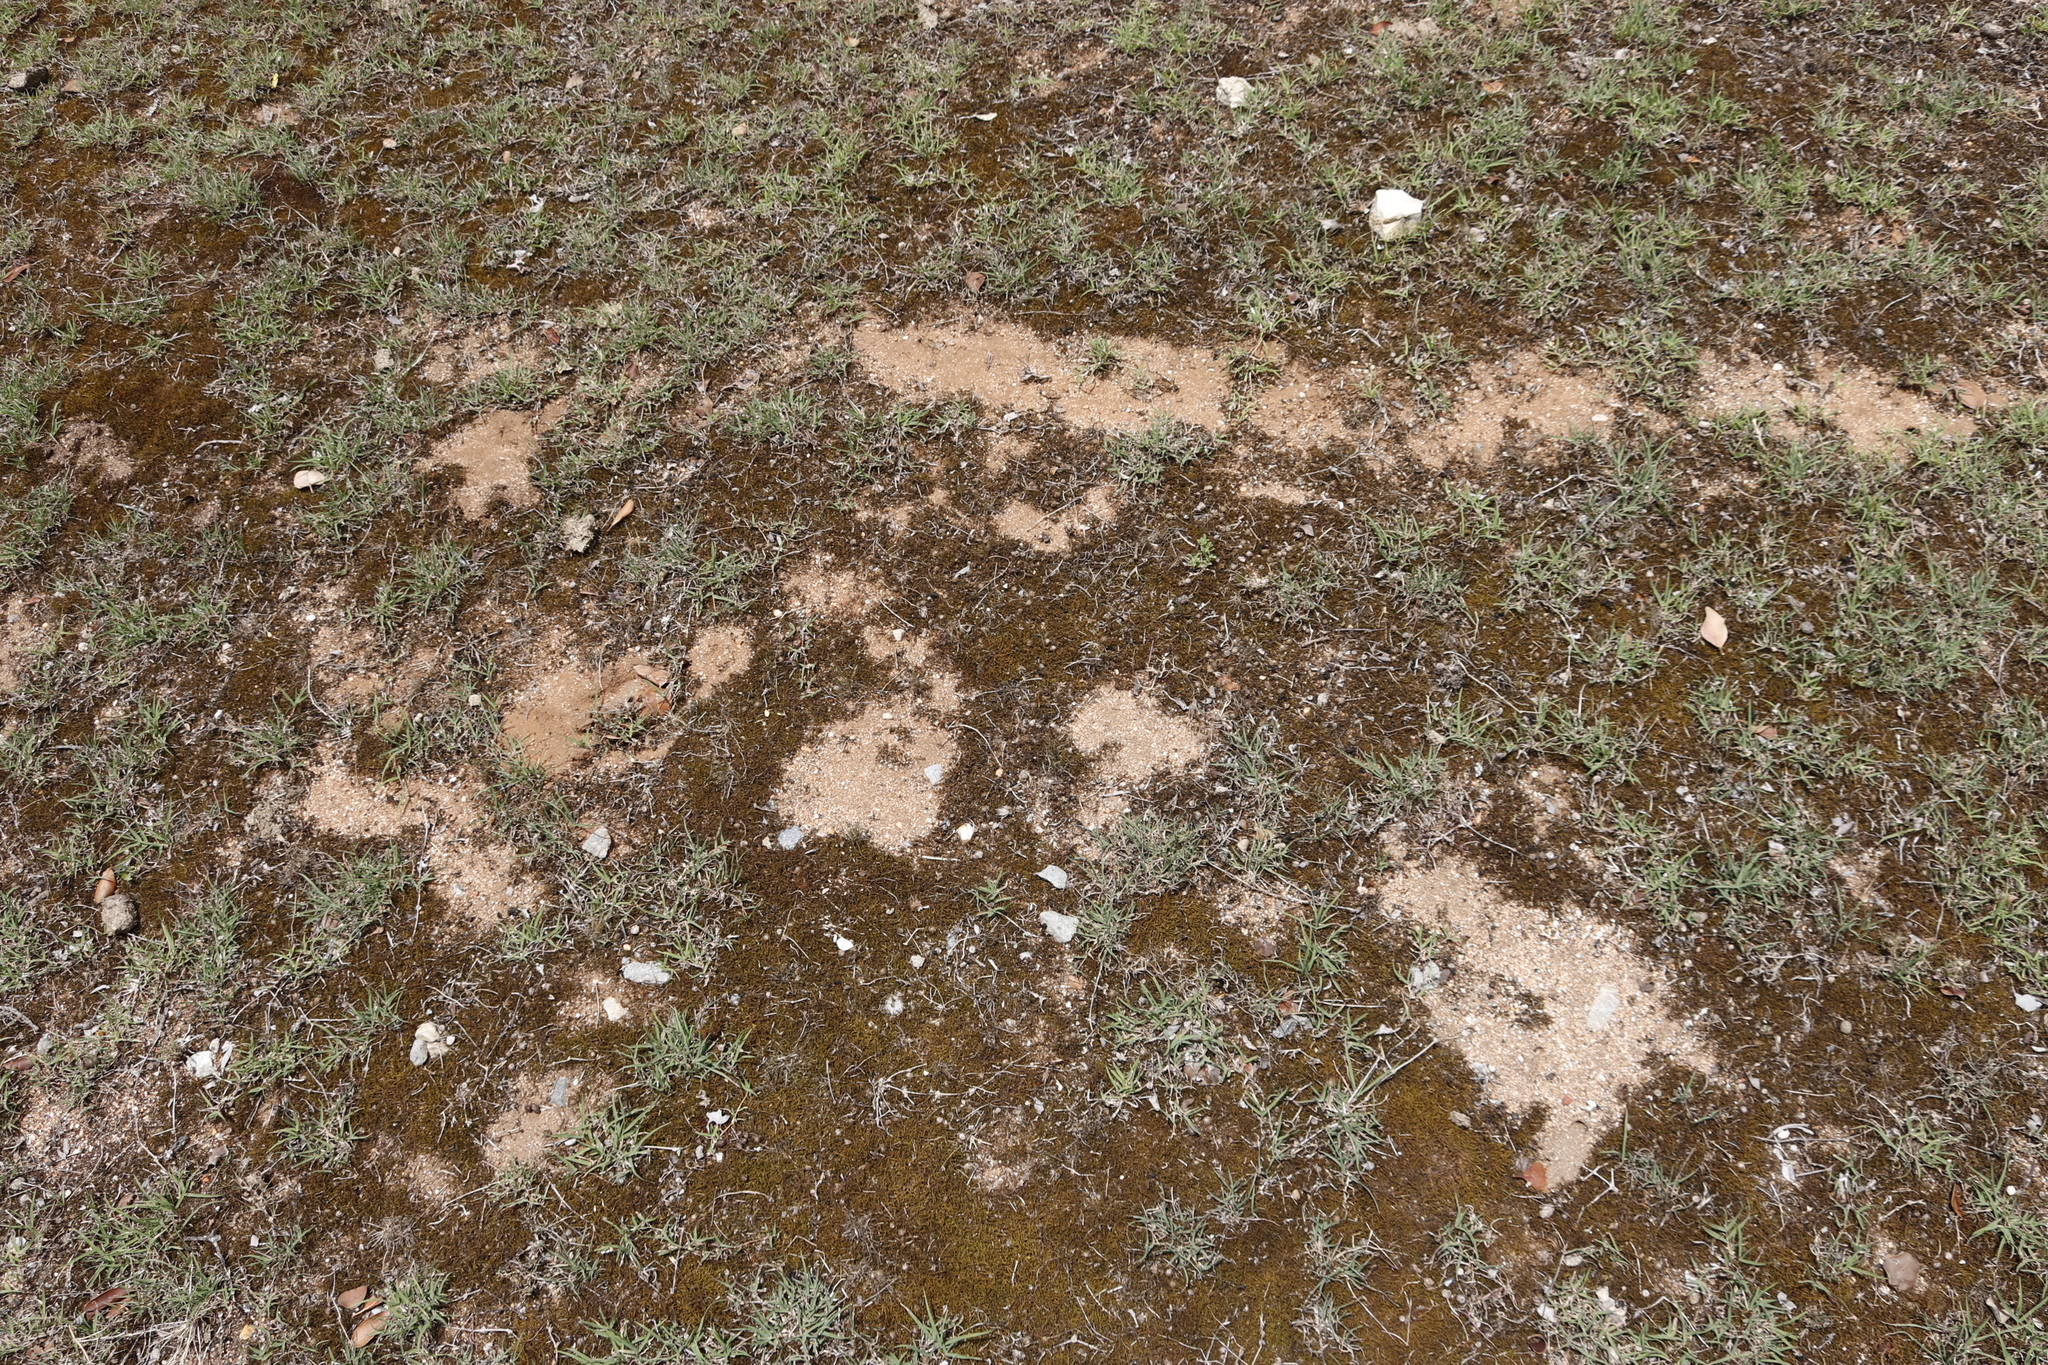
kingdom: Plantae
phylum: Tracheophyta
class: Liliopsida
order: Poales
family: Poaceae
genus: Cynodon
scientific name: Cynodon dactylon
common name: Bermuda grass
